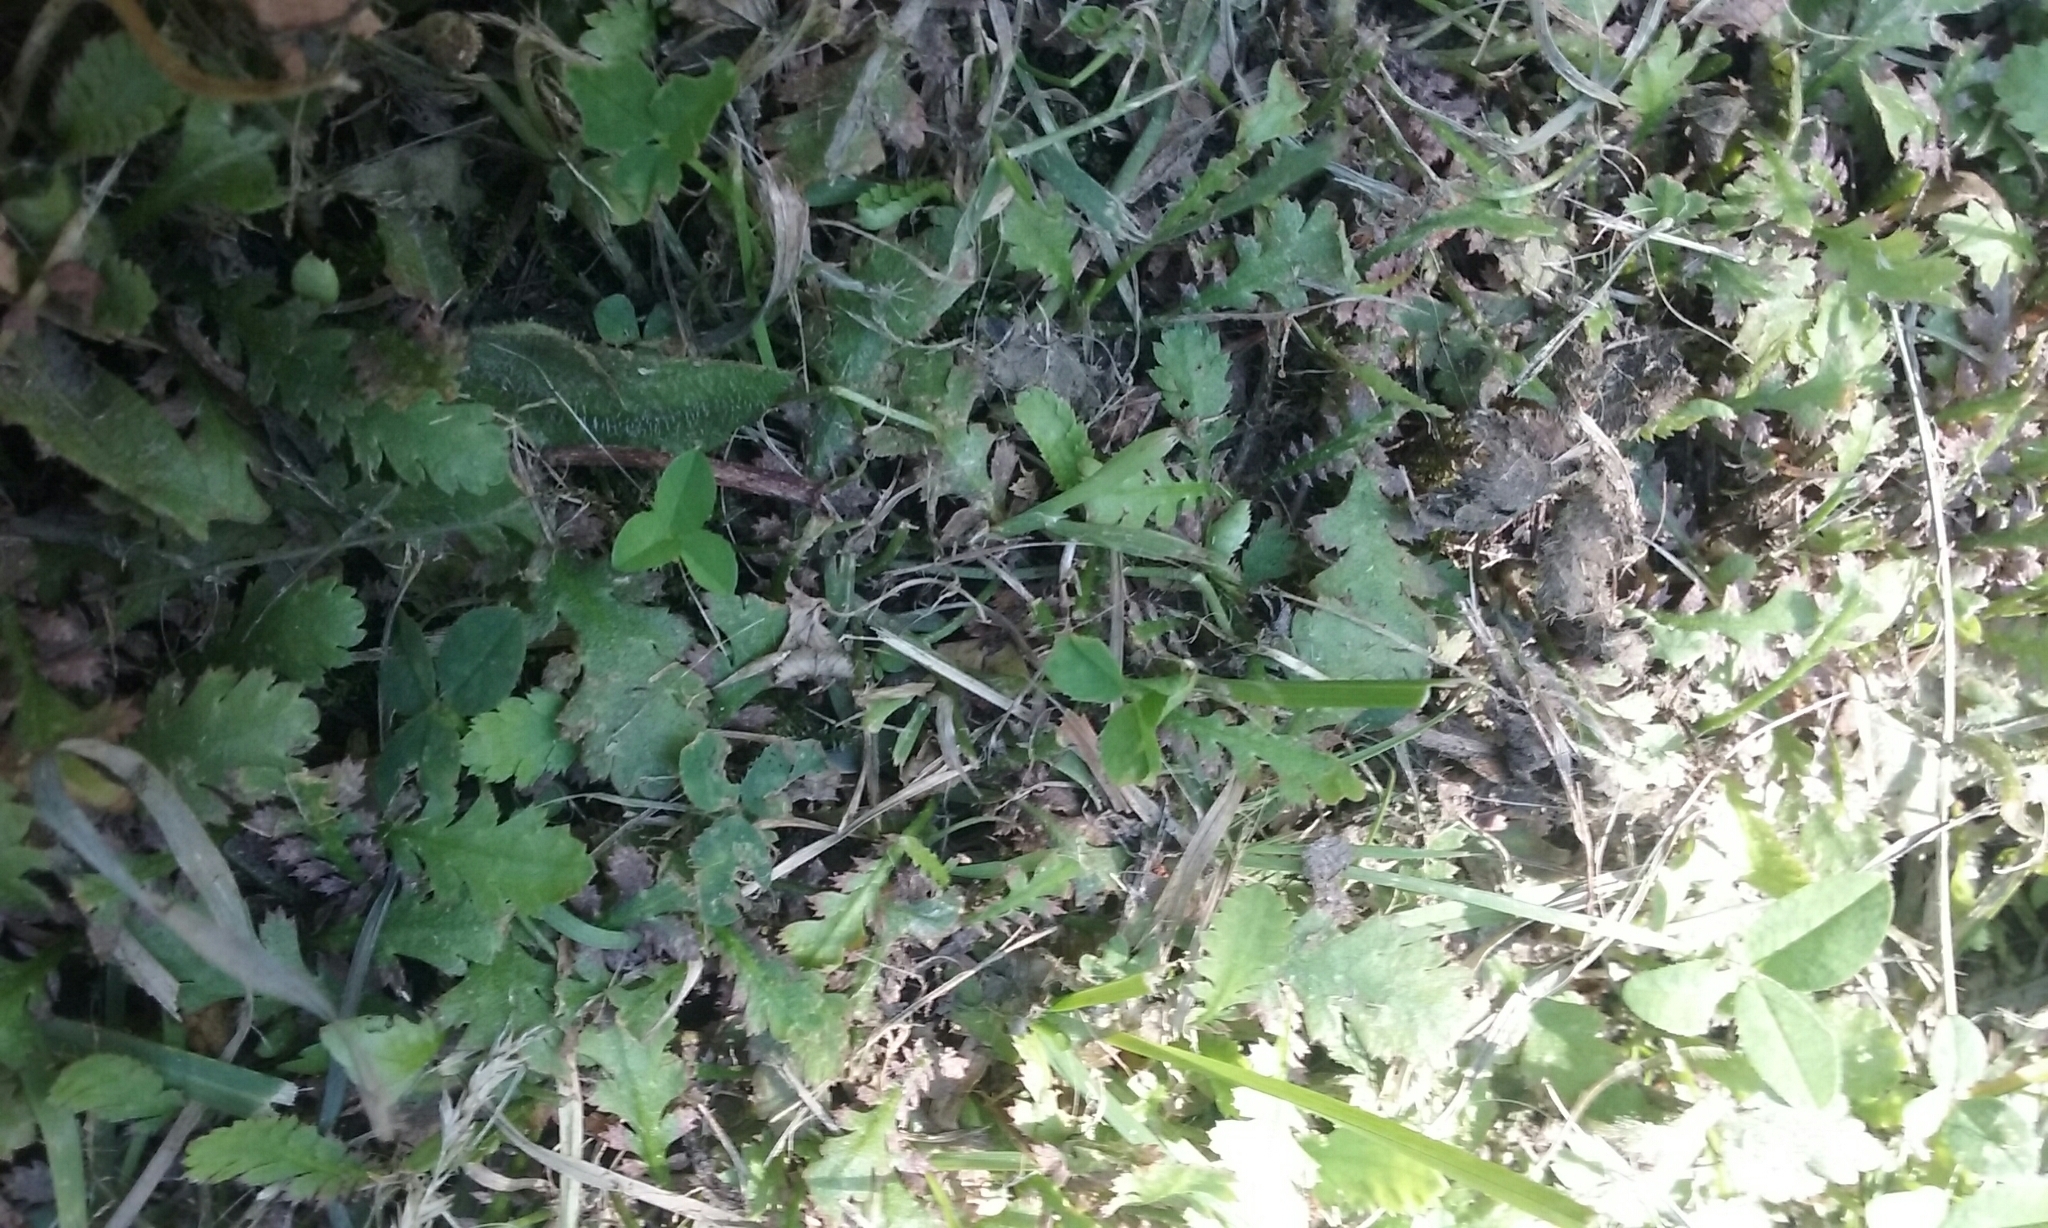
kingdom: Plantae
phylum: Tracheophyta
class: Magnoliopsida
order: Asterales
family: Asteraceae
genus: Leptinella
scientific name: Leptinella dioica
